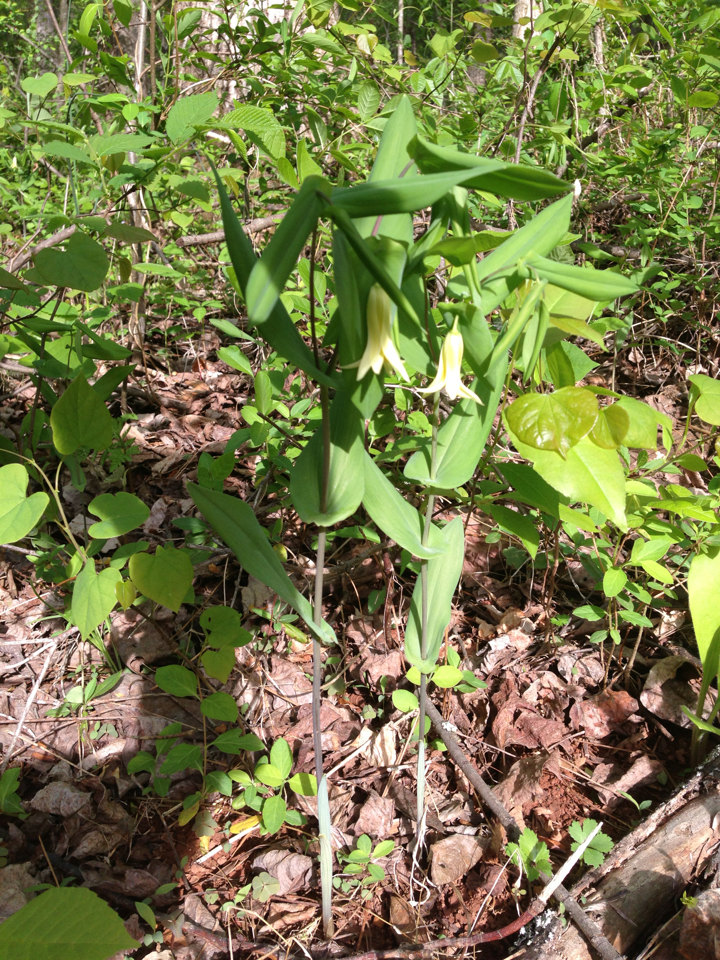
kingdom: Plantae
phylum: Tracheophyta
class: Liliopsida
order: Liliales
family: Colchicaceae
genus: Uvularia
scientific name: Uvularia perfoliata
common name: Perfoliate bellwort
